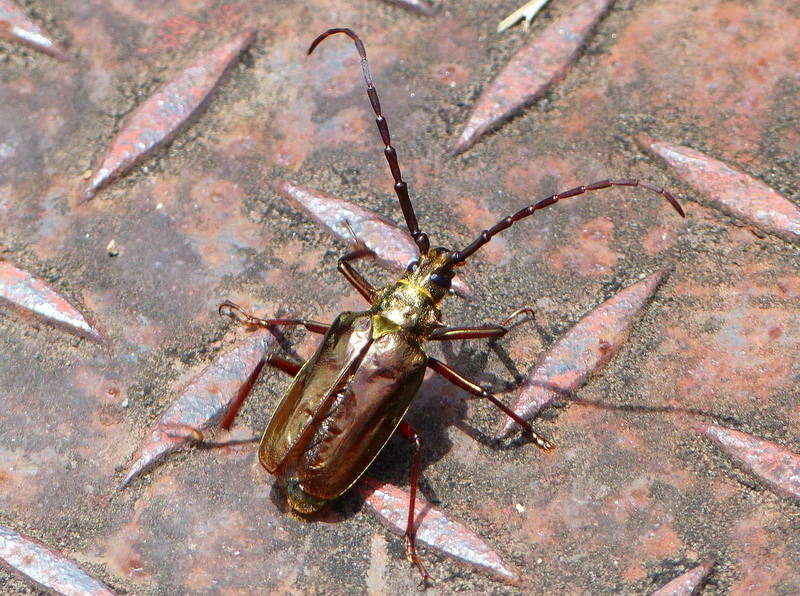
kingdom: Animalia
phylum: Arthropoda
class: Insecta
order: Coleoptera
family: Cerambycidae
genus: Scatopyrodes
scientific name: Scatopyrodes trichostethus
